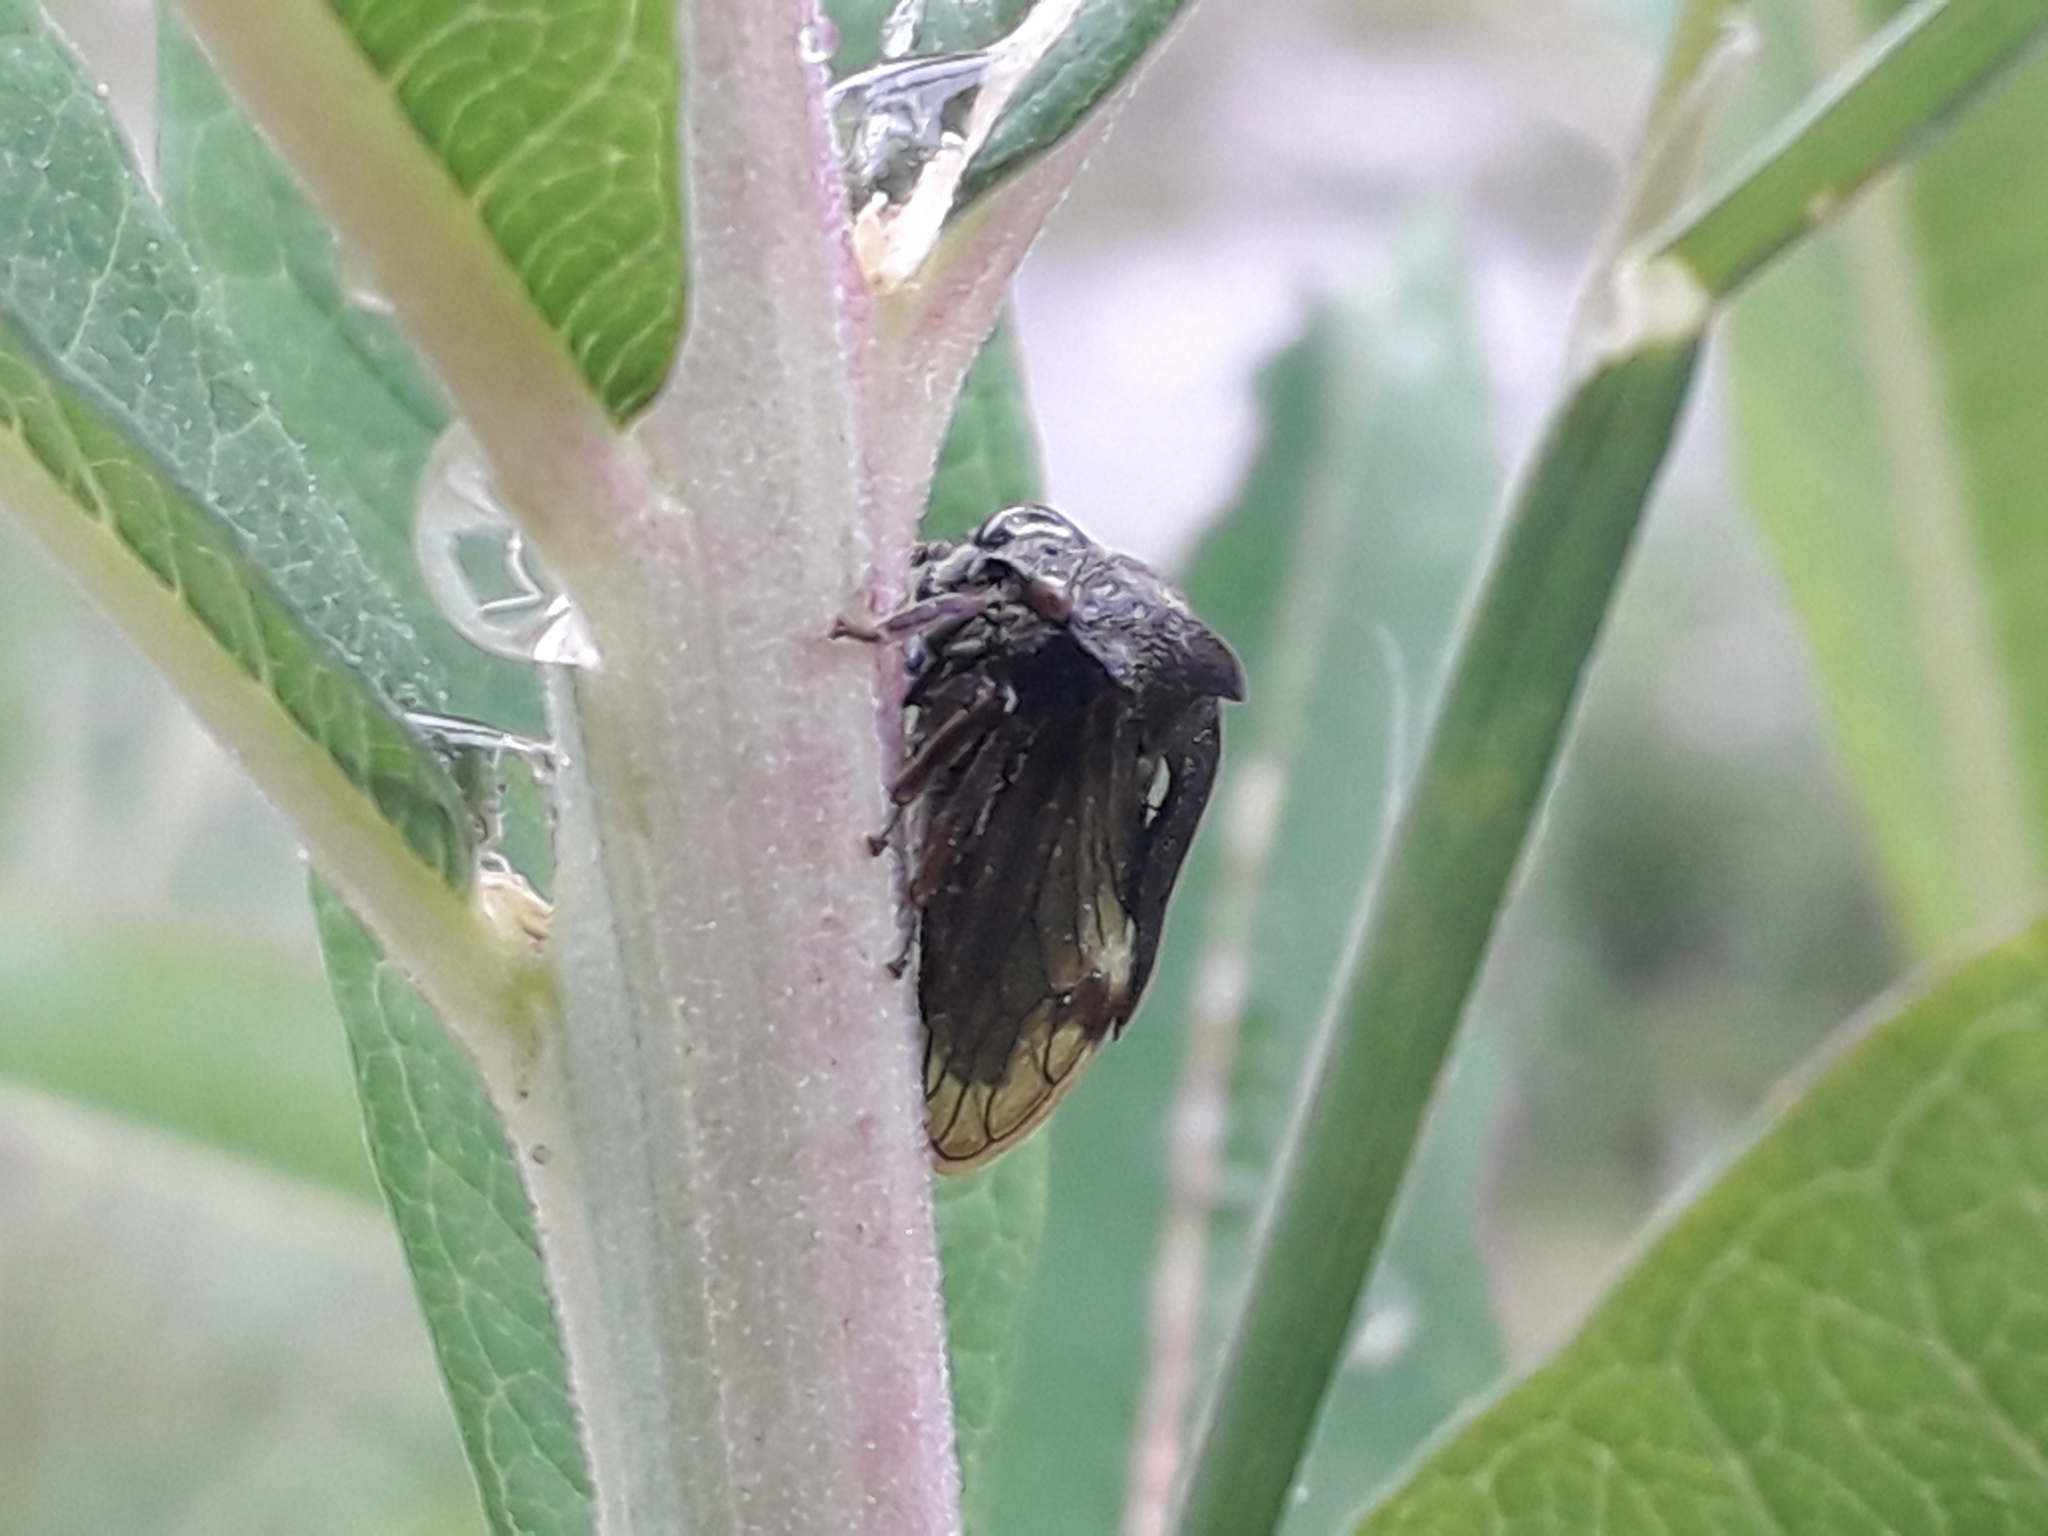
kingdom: Animalia
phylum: Arthropoda
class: Insecta
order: Hemiptera
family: Membracidae
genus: Centrotus
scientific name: Centrotus cornuta
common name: Treehopper
